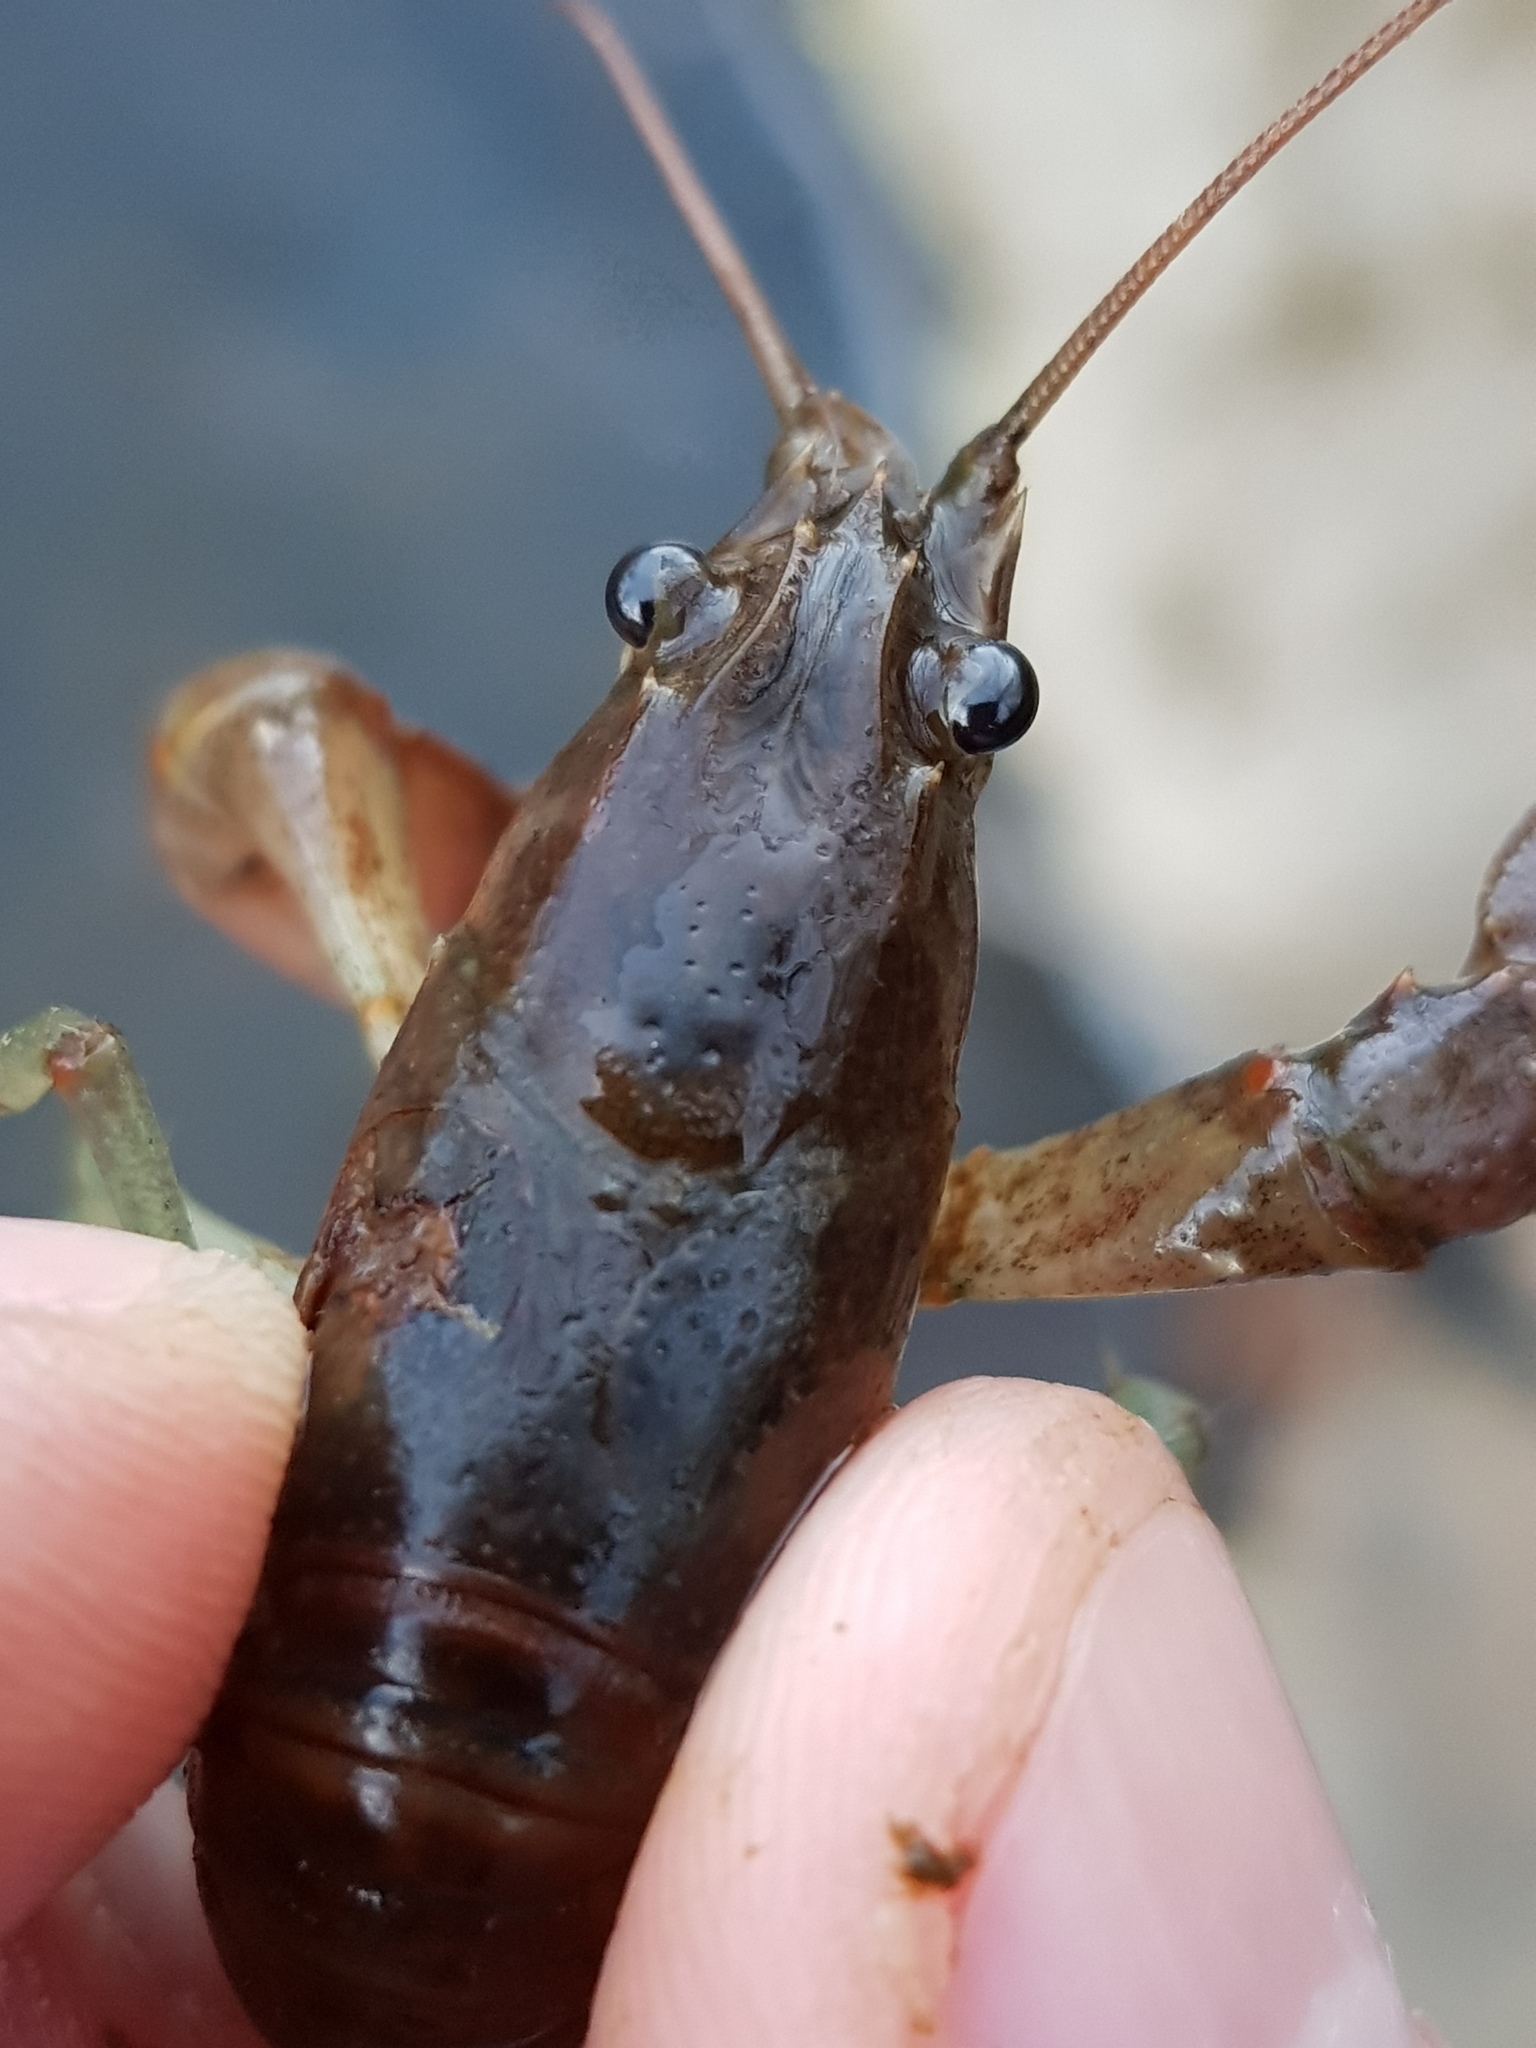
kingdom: Animalia
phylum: Arthropoda
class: Malacostraca
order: Decapoda
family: Cambaridae
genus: Faxonius
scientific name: Faxonius rusticus
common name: Rusty crayfish
